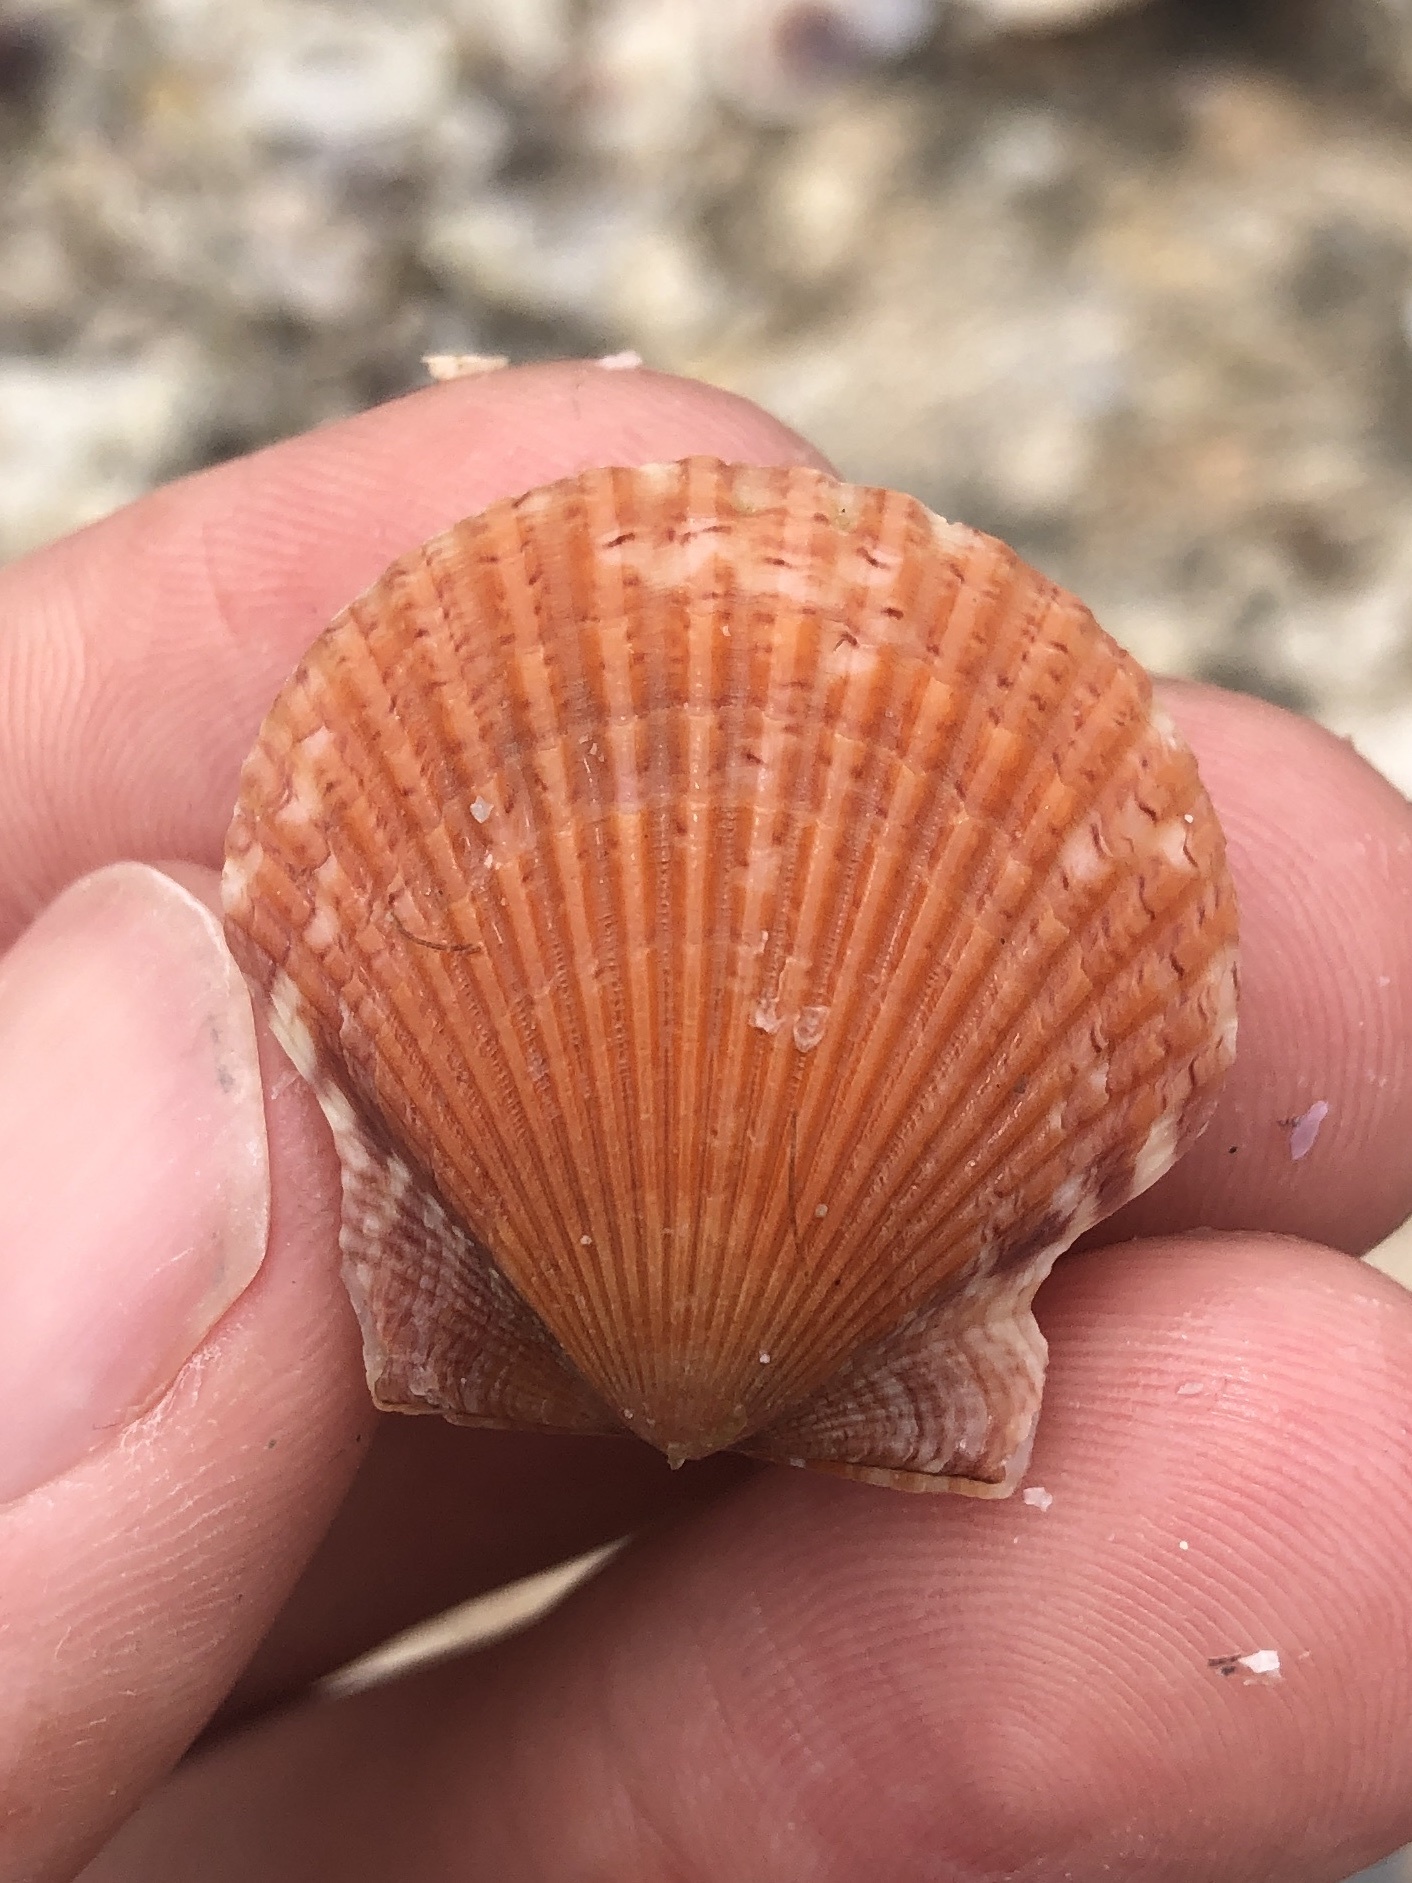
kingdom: Animalia
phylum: Mollusca
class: Bivalvia
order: Pectinida
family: Pectinidae
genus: Argopecten
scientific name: Argopecten gibbus
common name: Atlantic calico scallop
